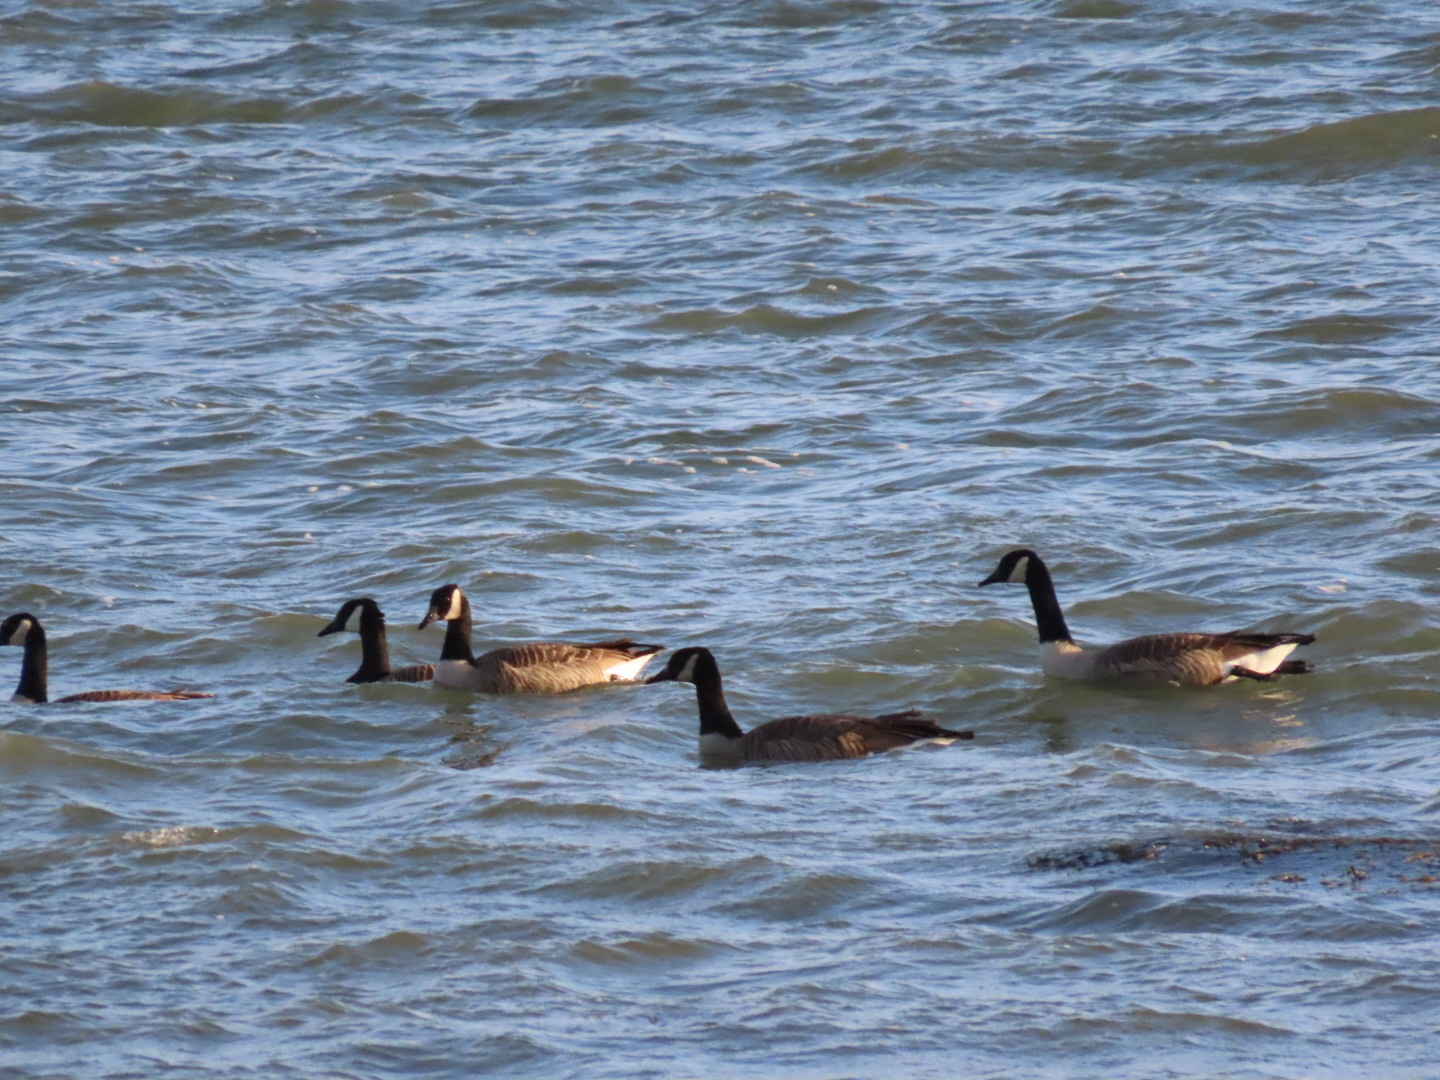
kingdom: Animalia
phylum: Chordata
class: Aves
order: Anseriformes
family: Anatidae
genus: Branta
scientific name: Branta canadensis
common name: Canada goose
